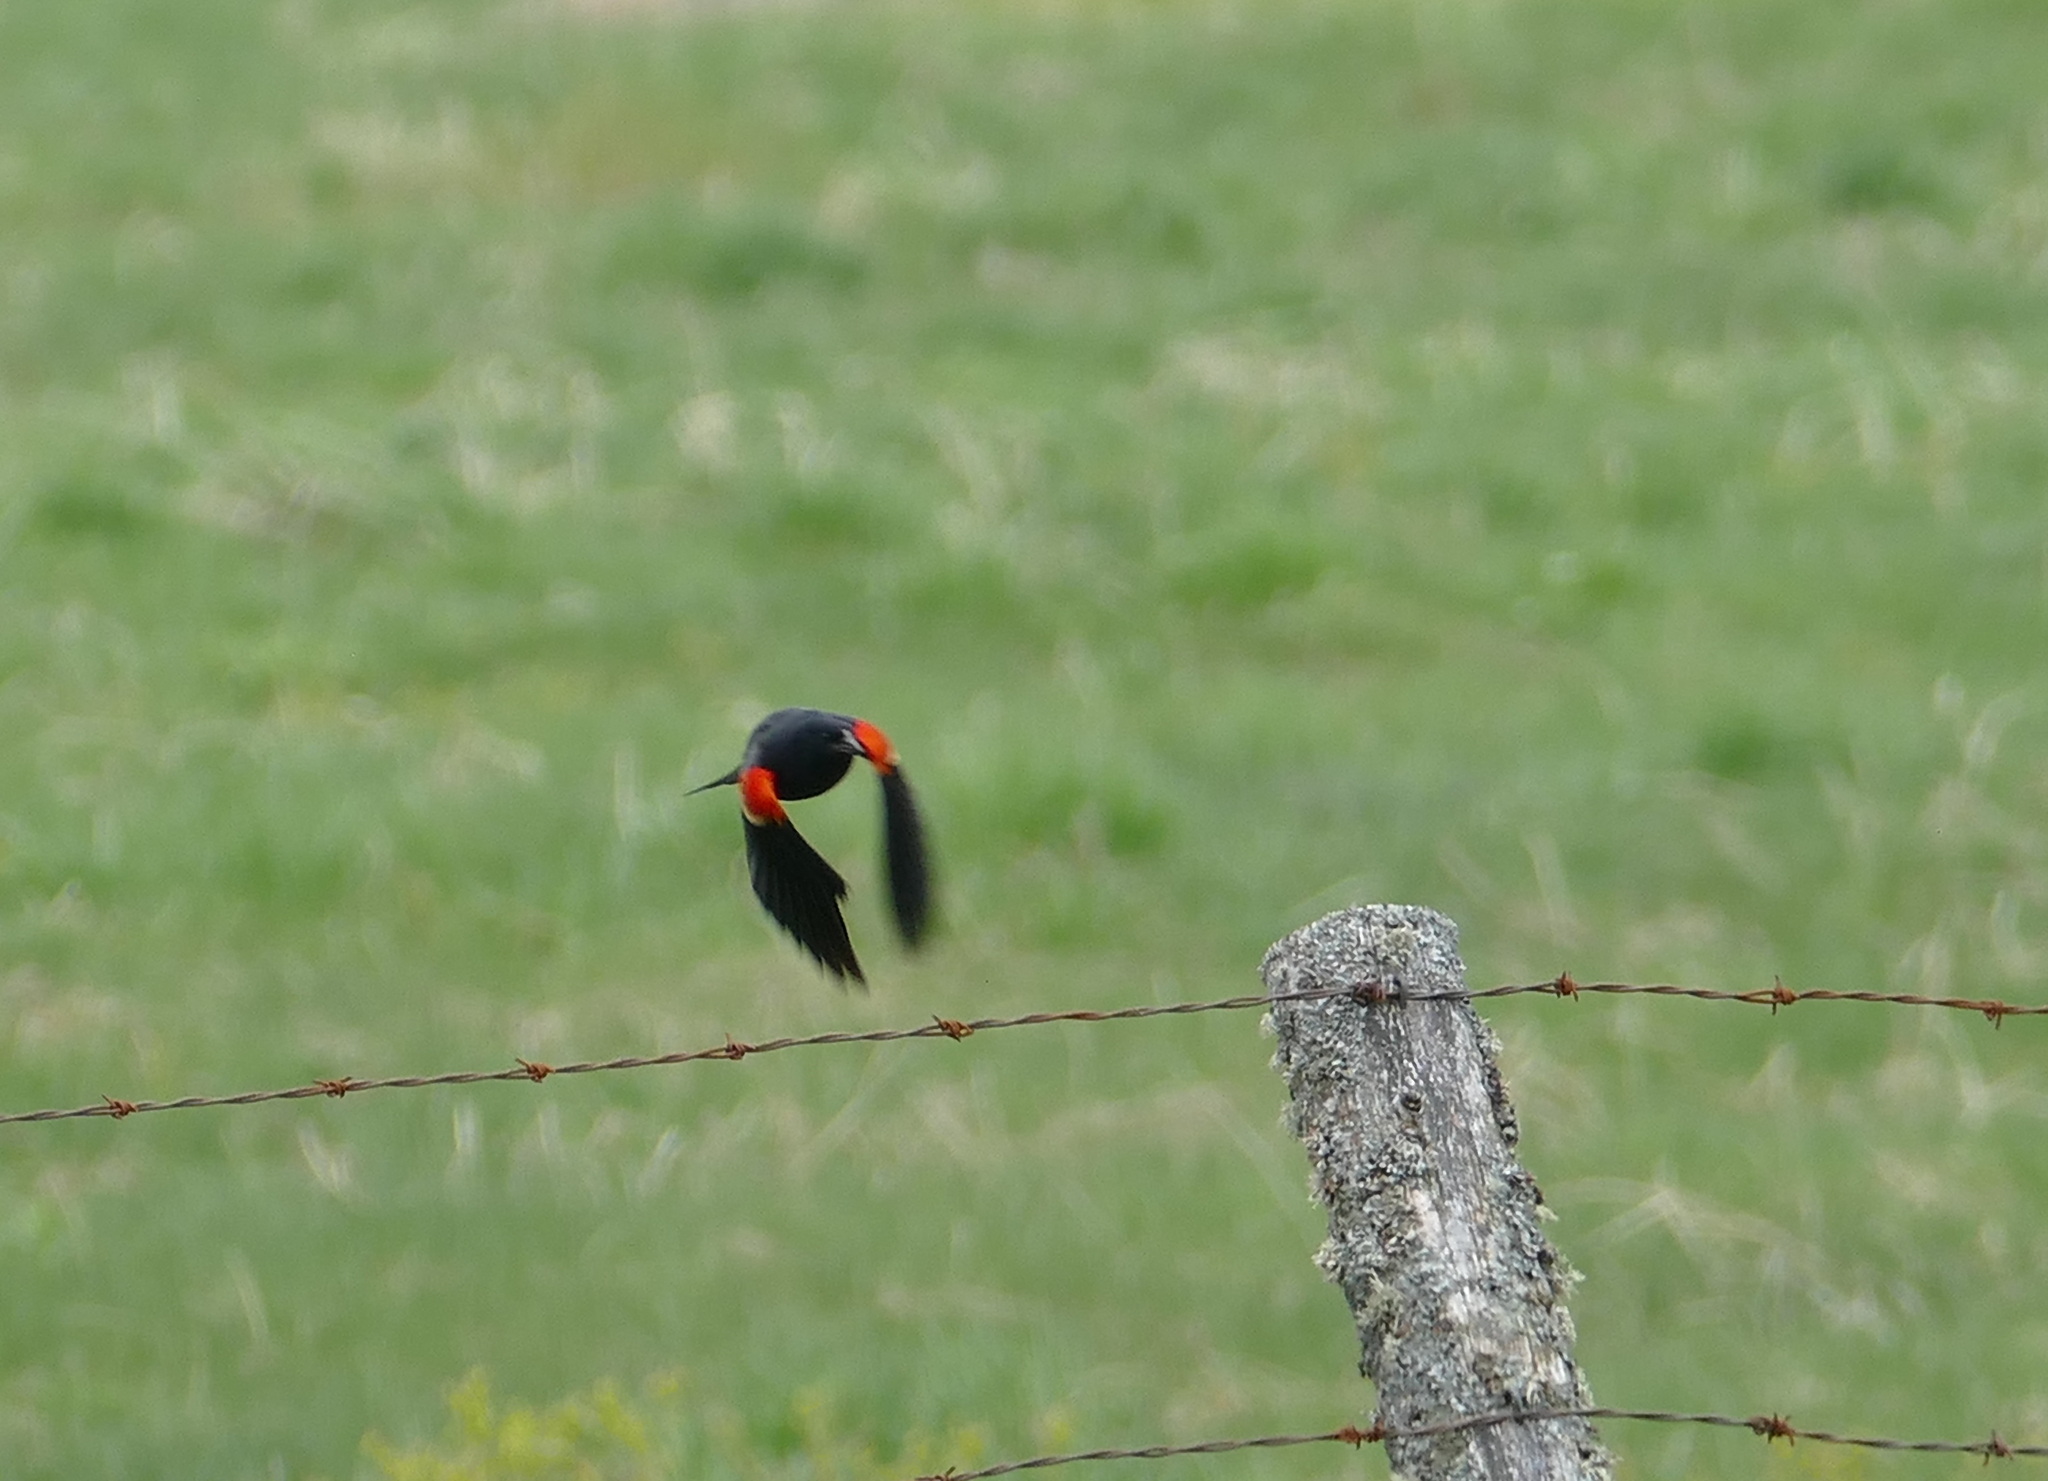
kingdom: Animalia
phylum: Chordata
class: Aves
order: Passeriformes
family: Icteridae
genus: Agelaius
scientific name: Agelaius phoeniceus
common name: Red-winged blackbird
